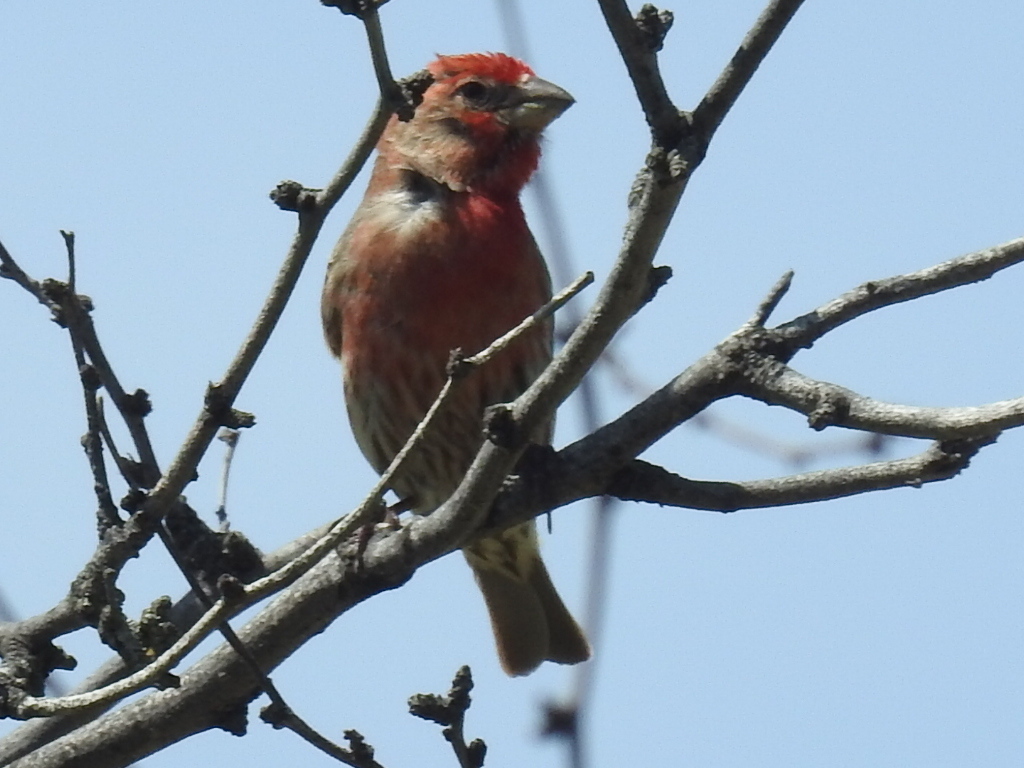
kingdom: Animalia
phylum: Chordata
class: Aves
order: Passeriformes
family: Fringillidae
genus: Haemorhous
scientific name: Haemorhous mexicanus
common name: House finch
